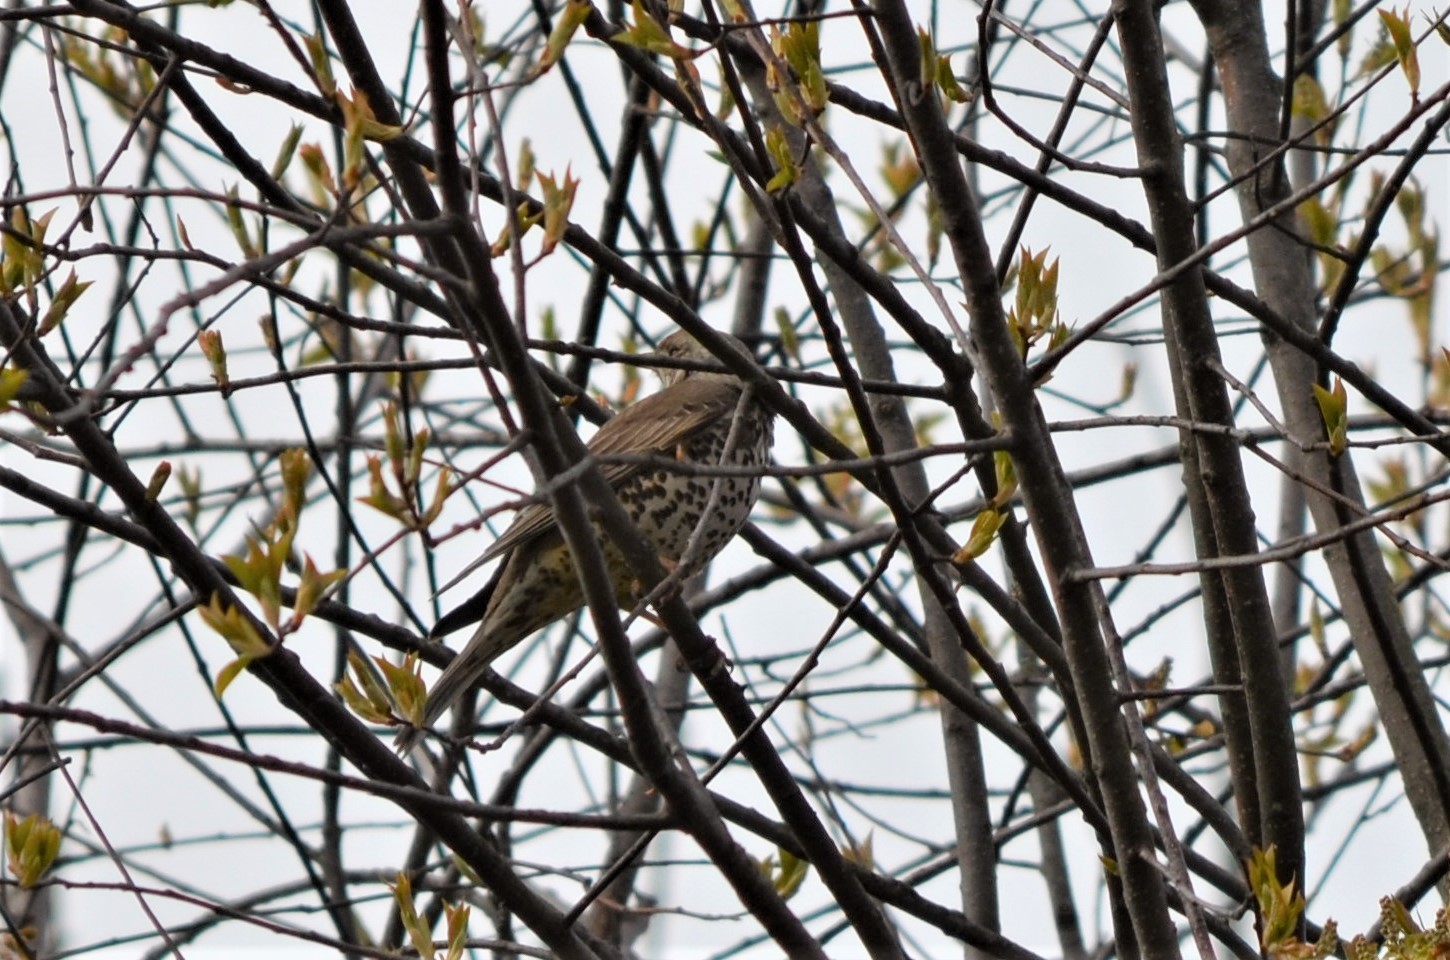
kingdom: Animalia
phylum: Chordata
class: Aves
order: Passeriformes
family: Turdidae
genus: Turdus
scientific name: Turdus viscivorus
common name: Mistle thrush
